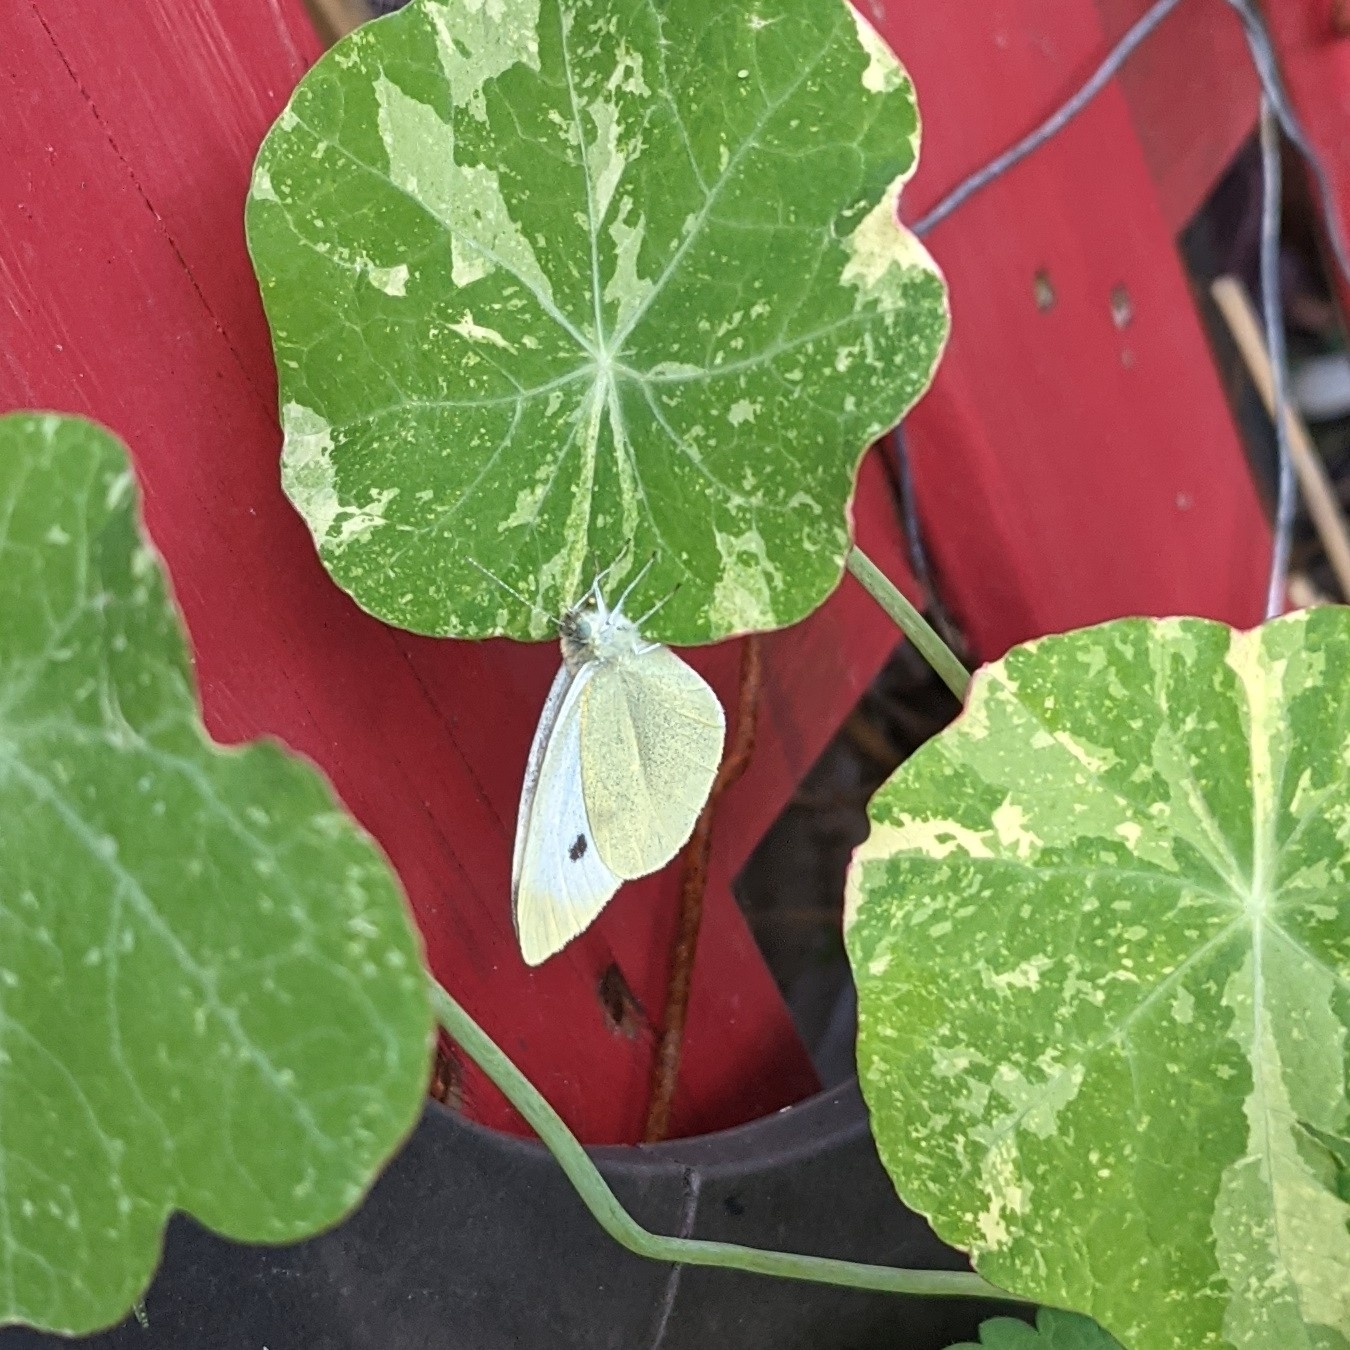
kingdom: Animalia
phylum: Arthropoda
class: Insecta
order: Lepidoptera
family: Pieridae
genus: Pieris
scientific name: Pieris rapae
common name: Small white
